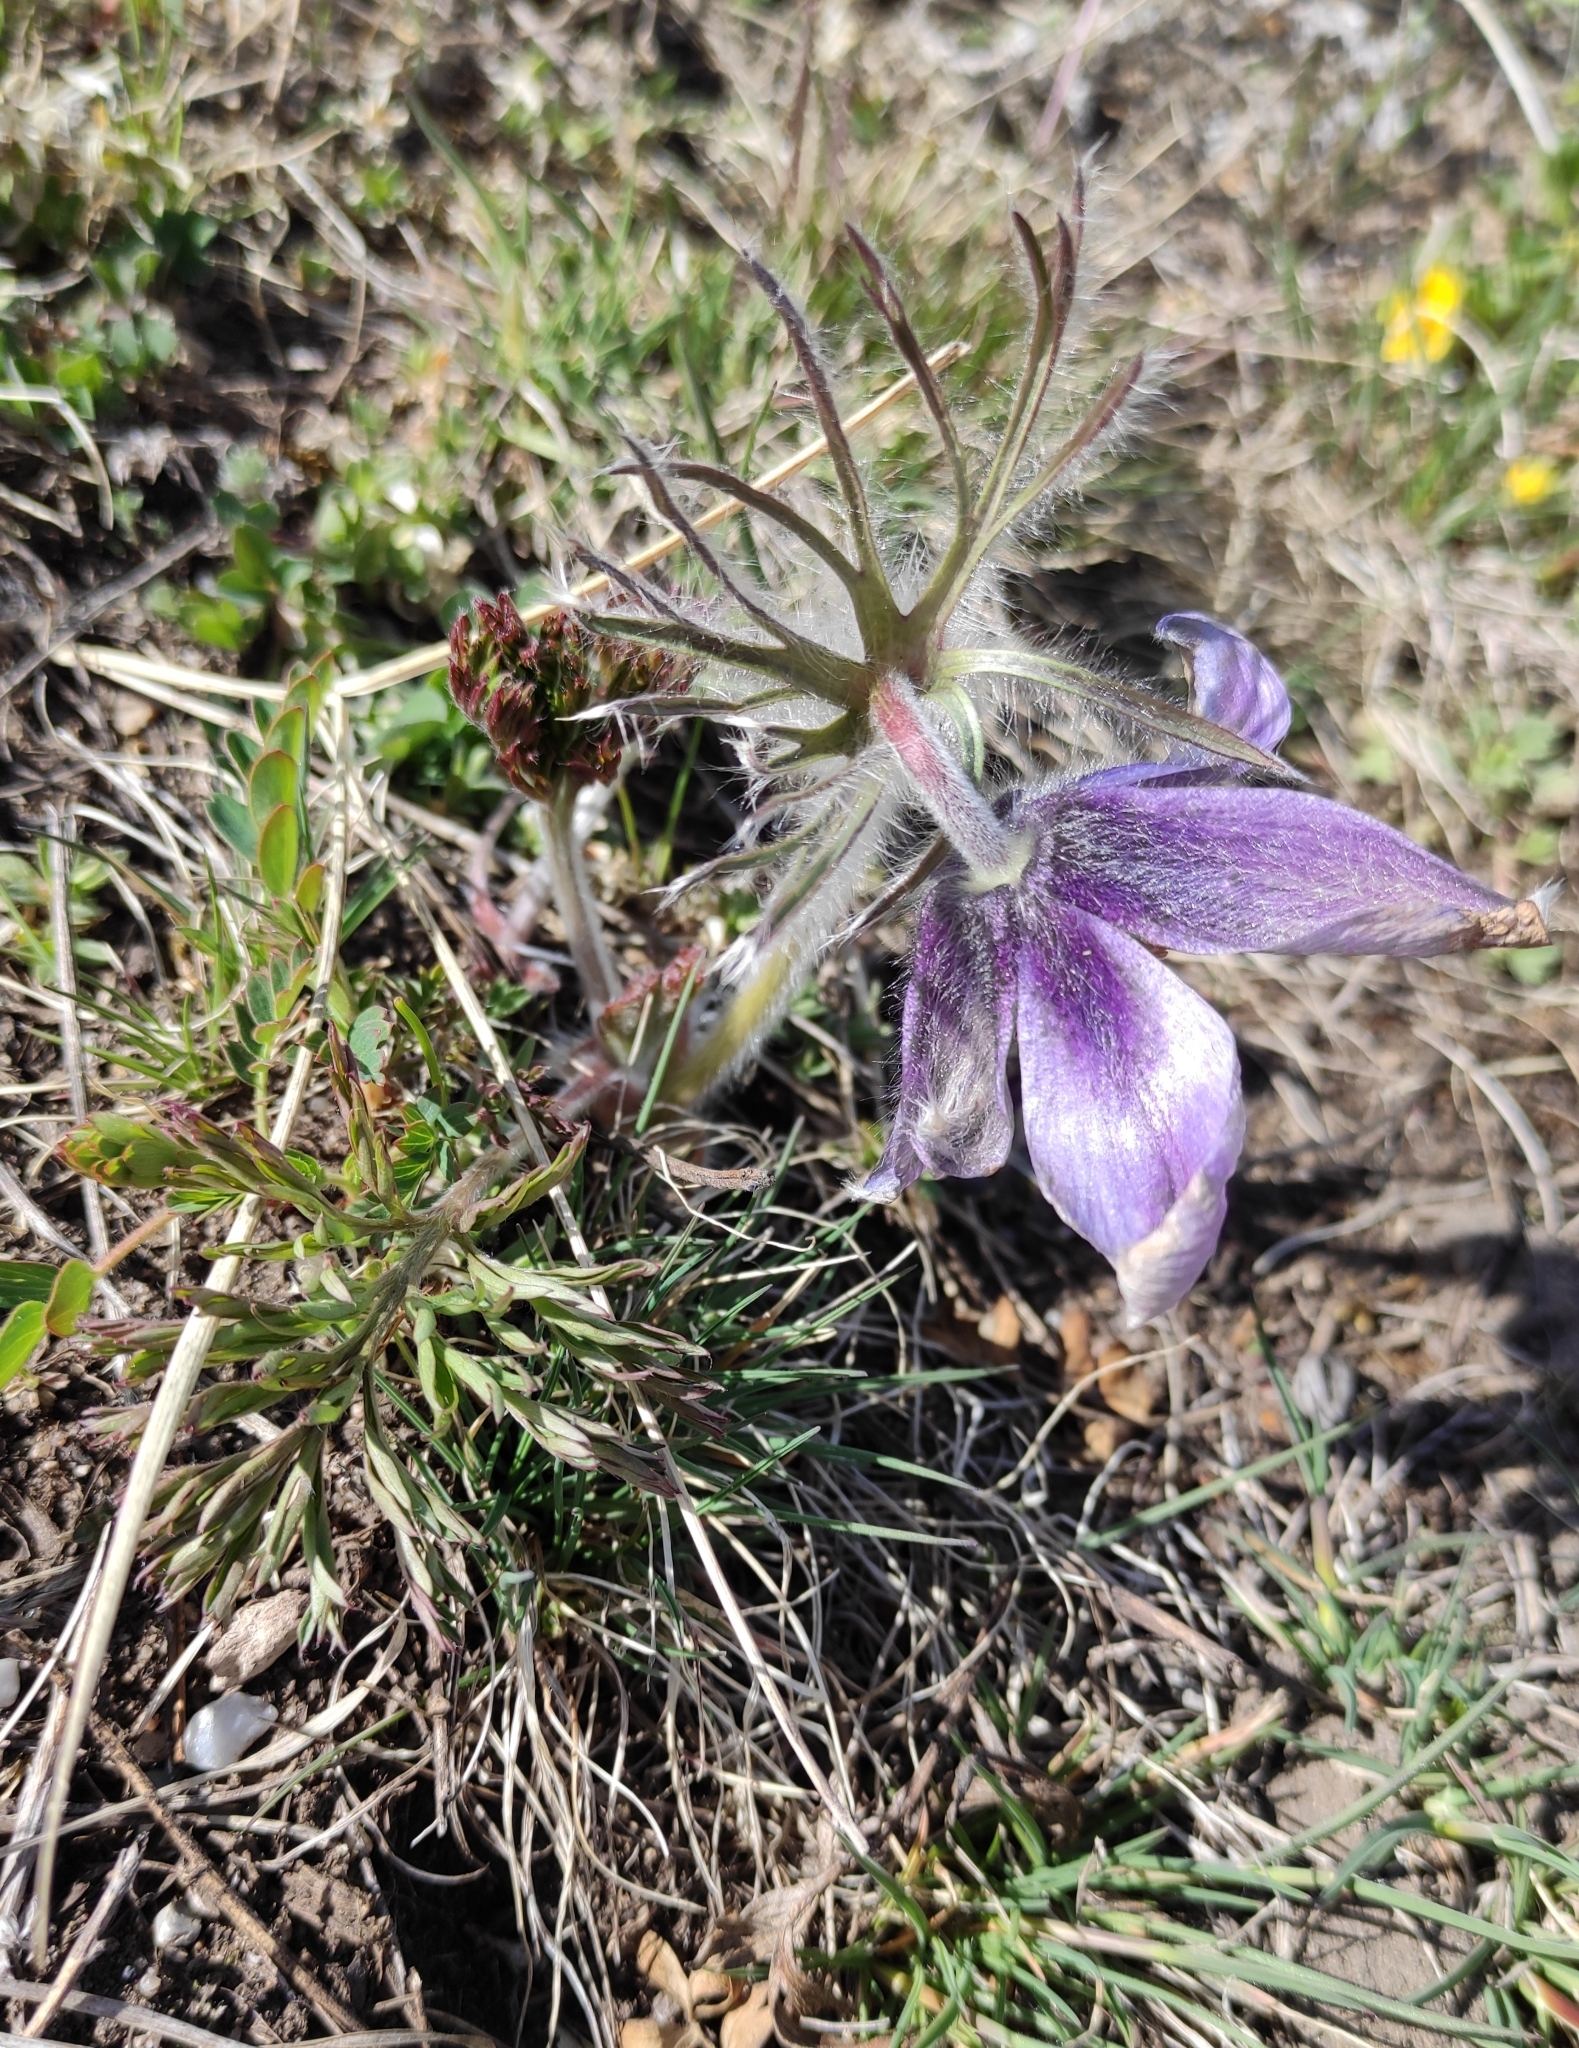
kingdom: Plantae
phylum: Tracheophyta
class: Magnoliopsida
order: Ranunculales
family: Ranunculaceae
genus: Pulsatilla
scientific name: Pulsatilla turczaninovii
